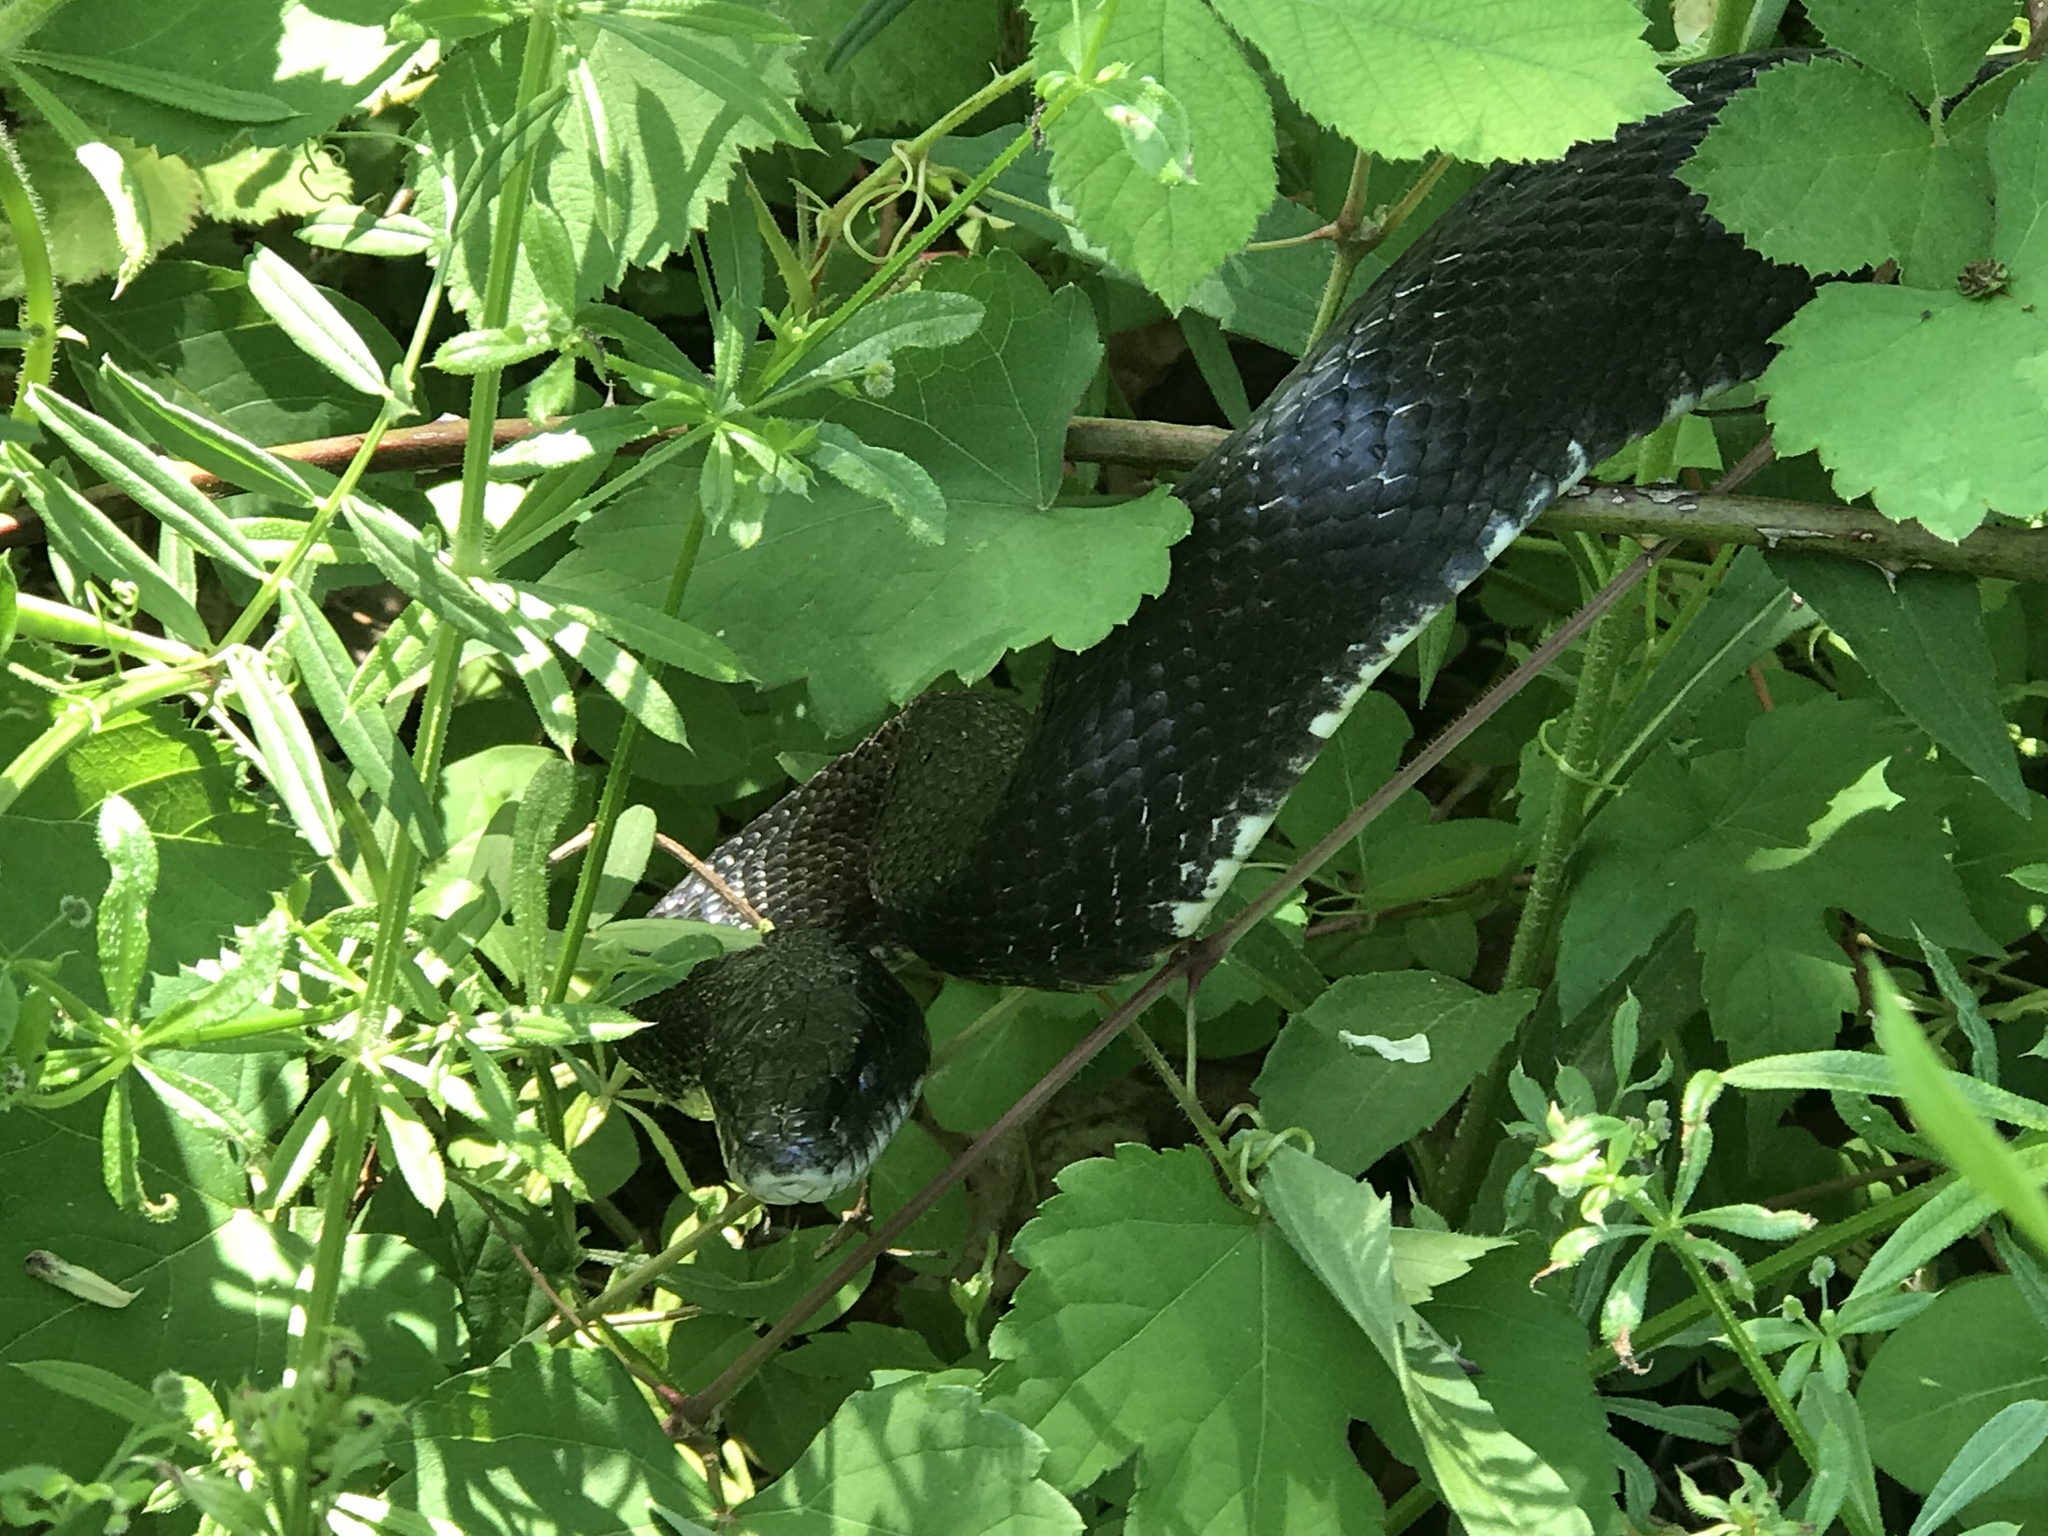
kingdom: Animalia
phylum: Chordata
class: Squamata
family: Colubridae
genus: Pantherophis
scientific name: Pantherophis alleghaniensis
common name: Eastern rat snake
